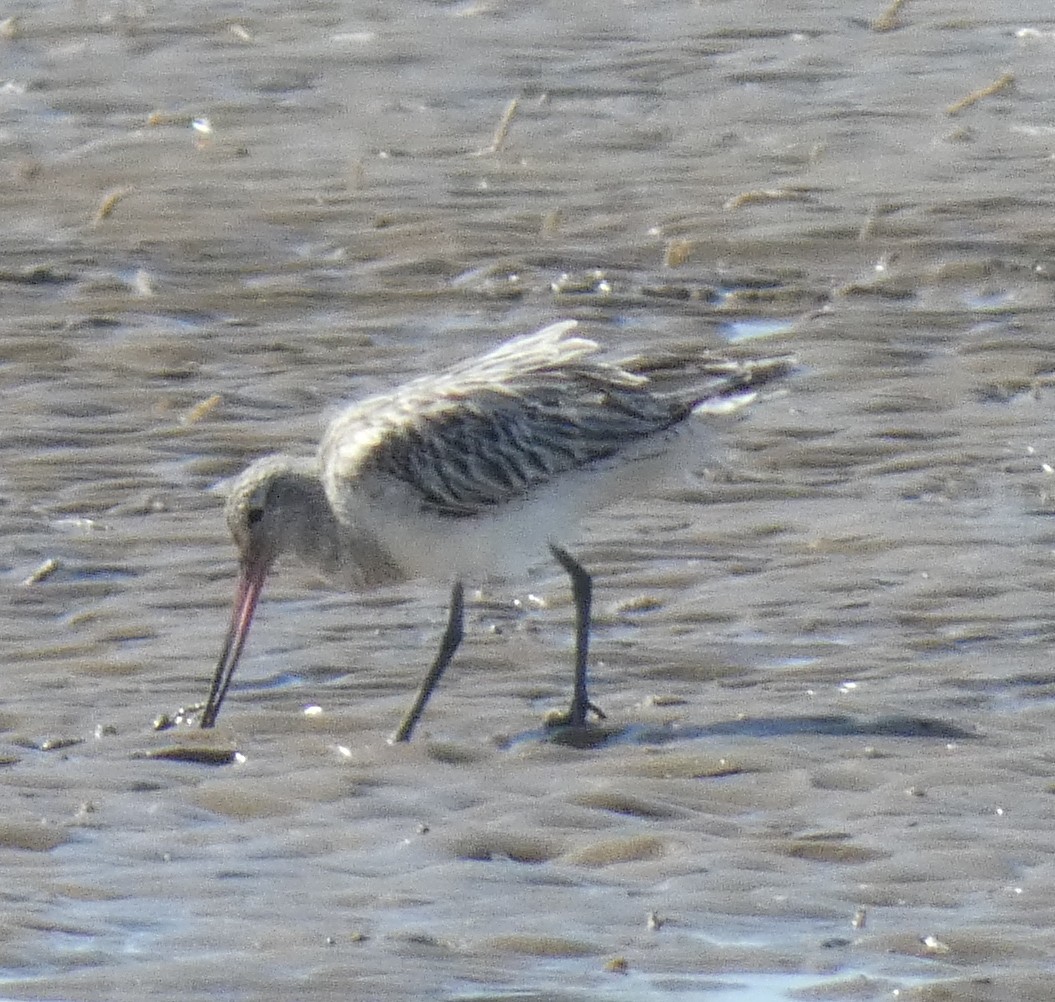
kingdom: Animalia
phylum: Chordata
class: Aves
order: Charadriiformes
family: Scolopacidae
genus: Limosa
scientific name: Limosa lapponica
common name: Bar-tailed godwit
